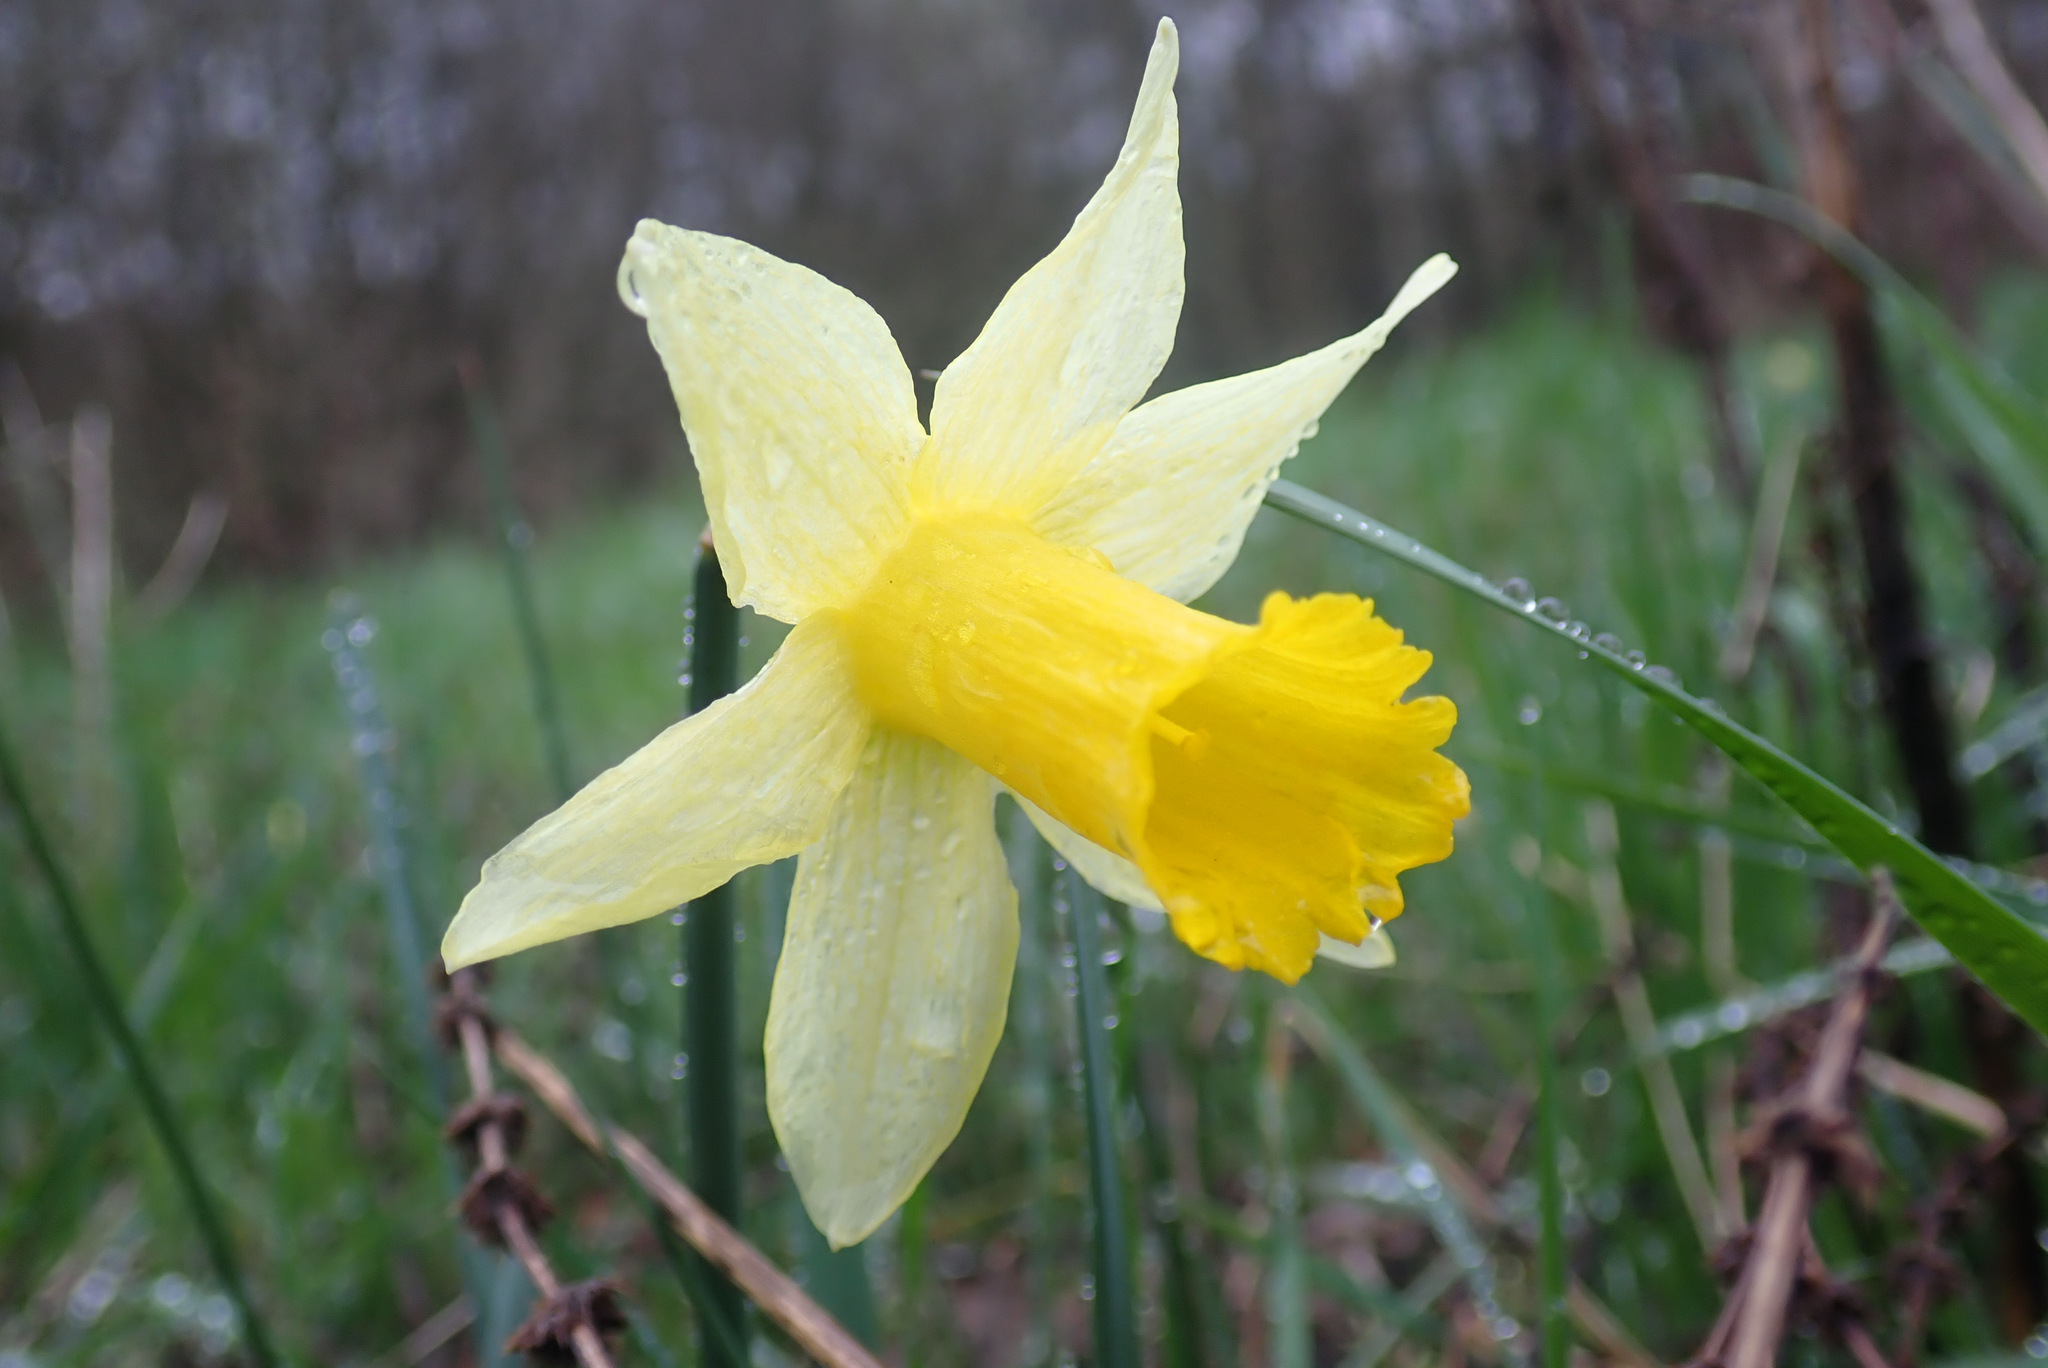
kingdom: Plantae
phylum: Tracheophyta
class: Liliopsida
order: Asparagales
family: Amaryllidaceae
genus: Narcissus
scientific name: Narcissus pseudonarcissus
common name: Daffodil
